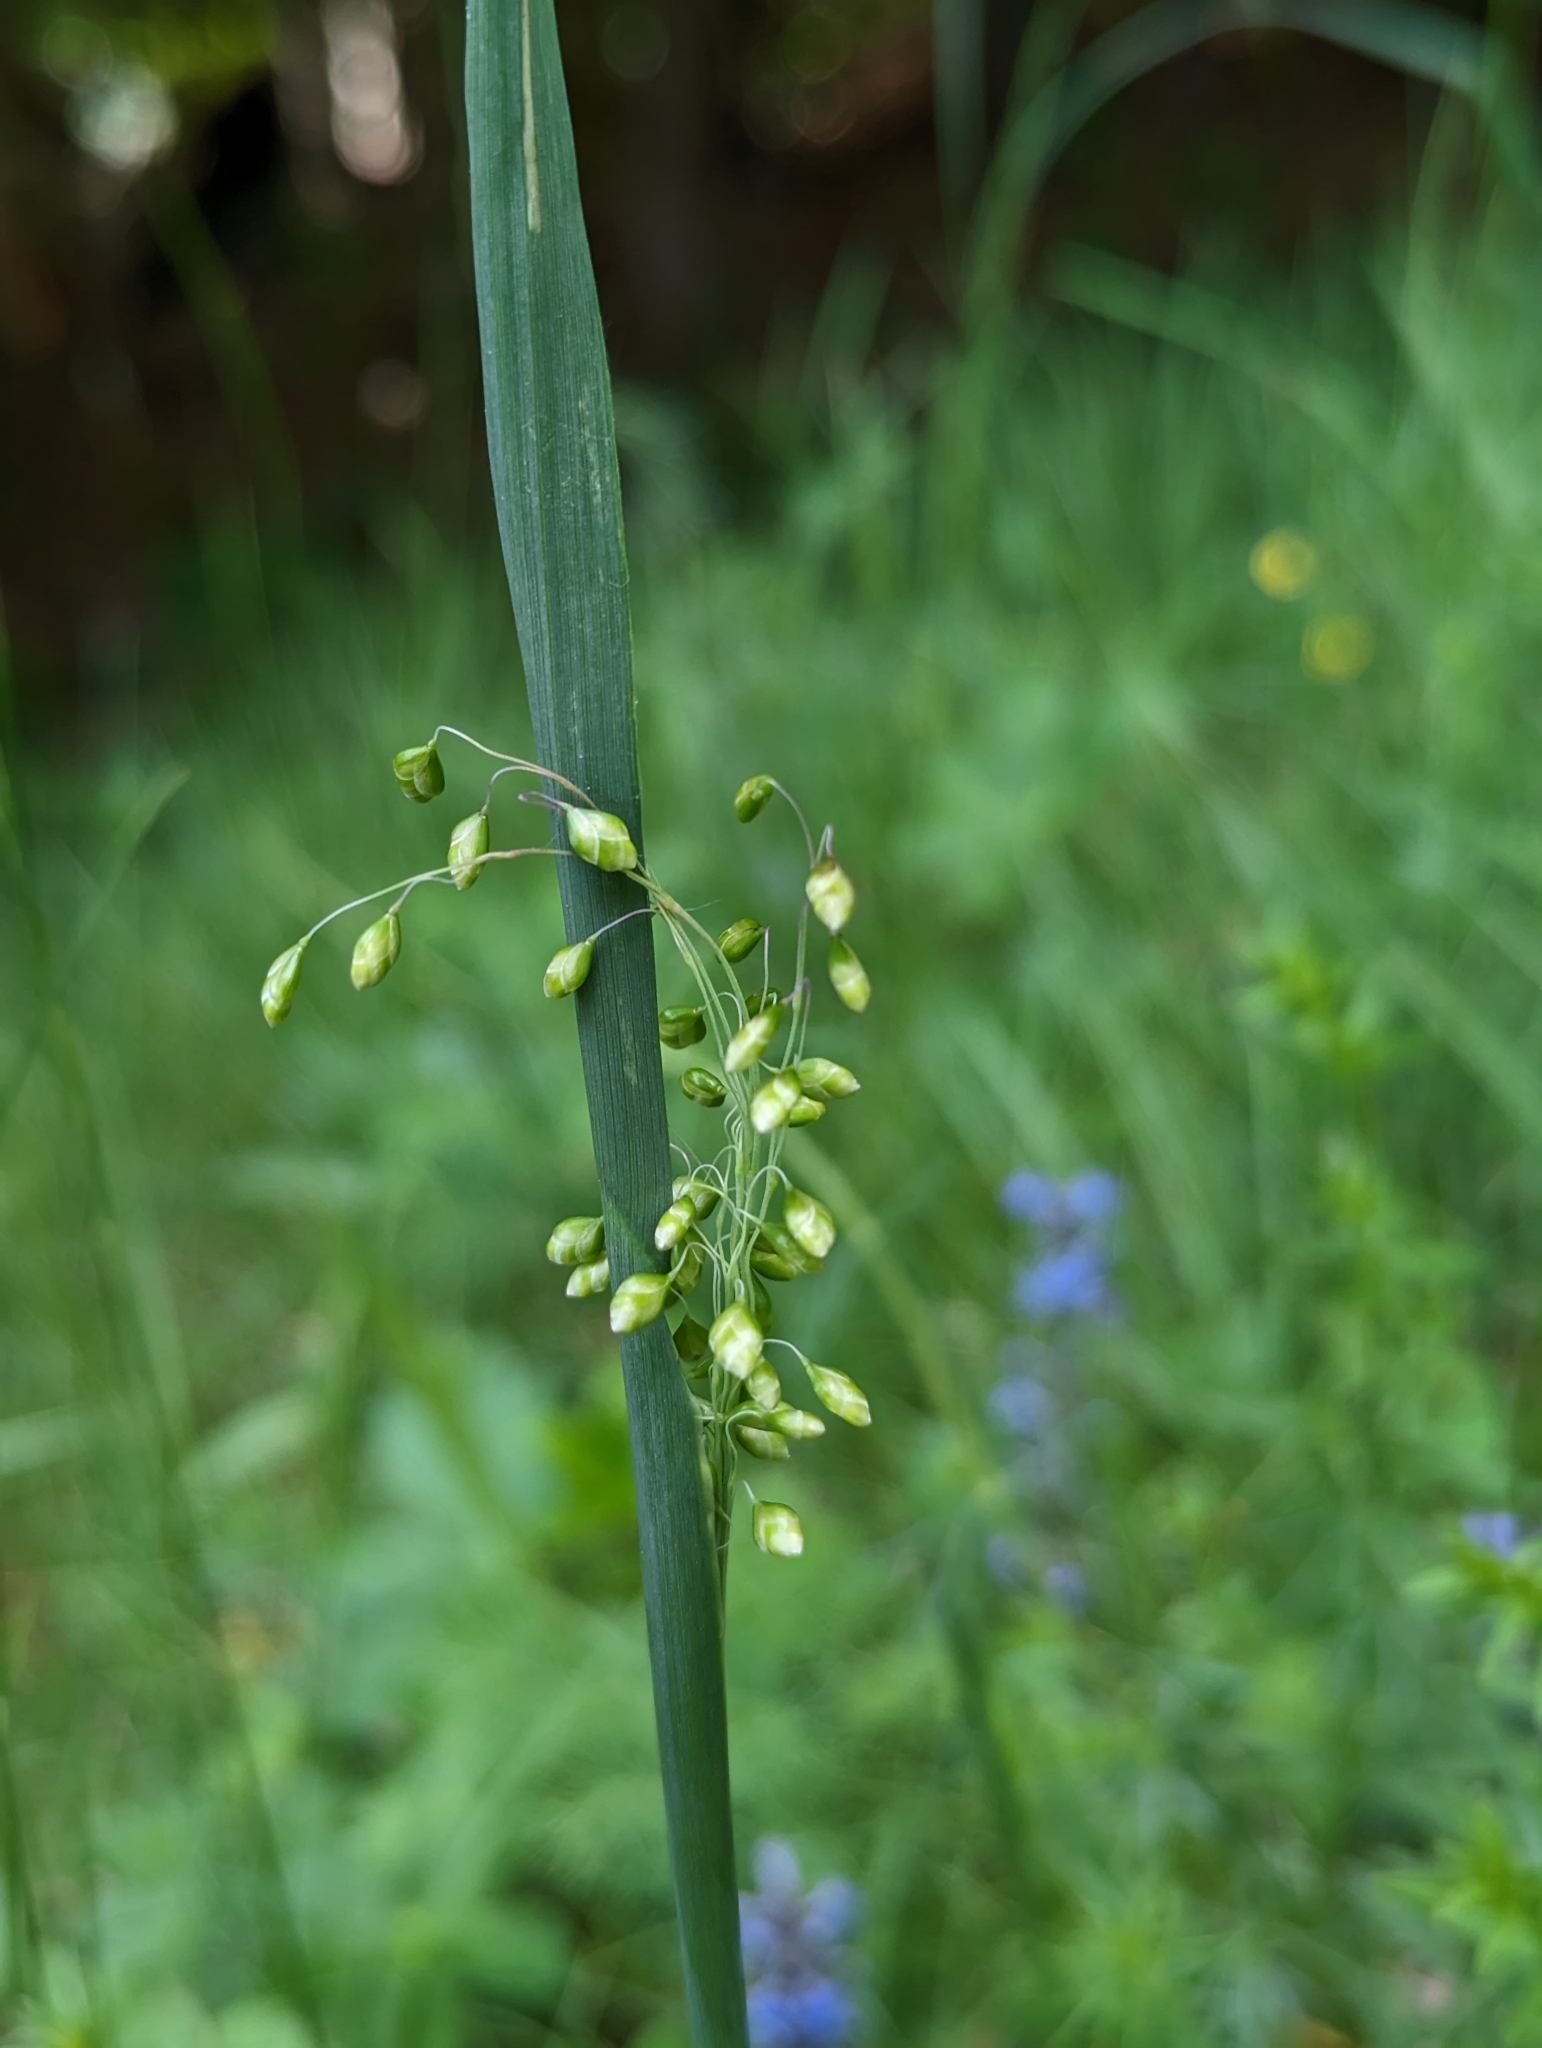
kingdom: Plantae
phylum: Tracheophyta
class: Liliopsida
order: Poales
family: Poaceae
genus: Briza
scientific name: Briza media
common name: Quaking grass
